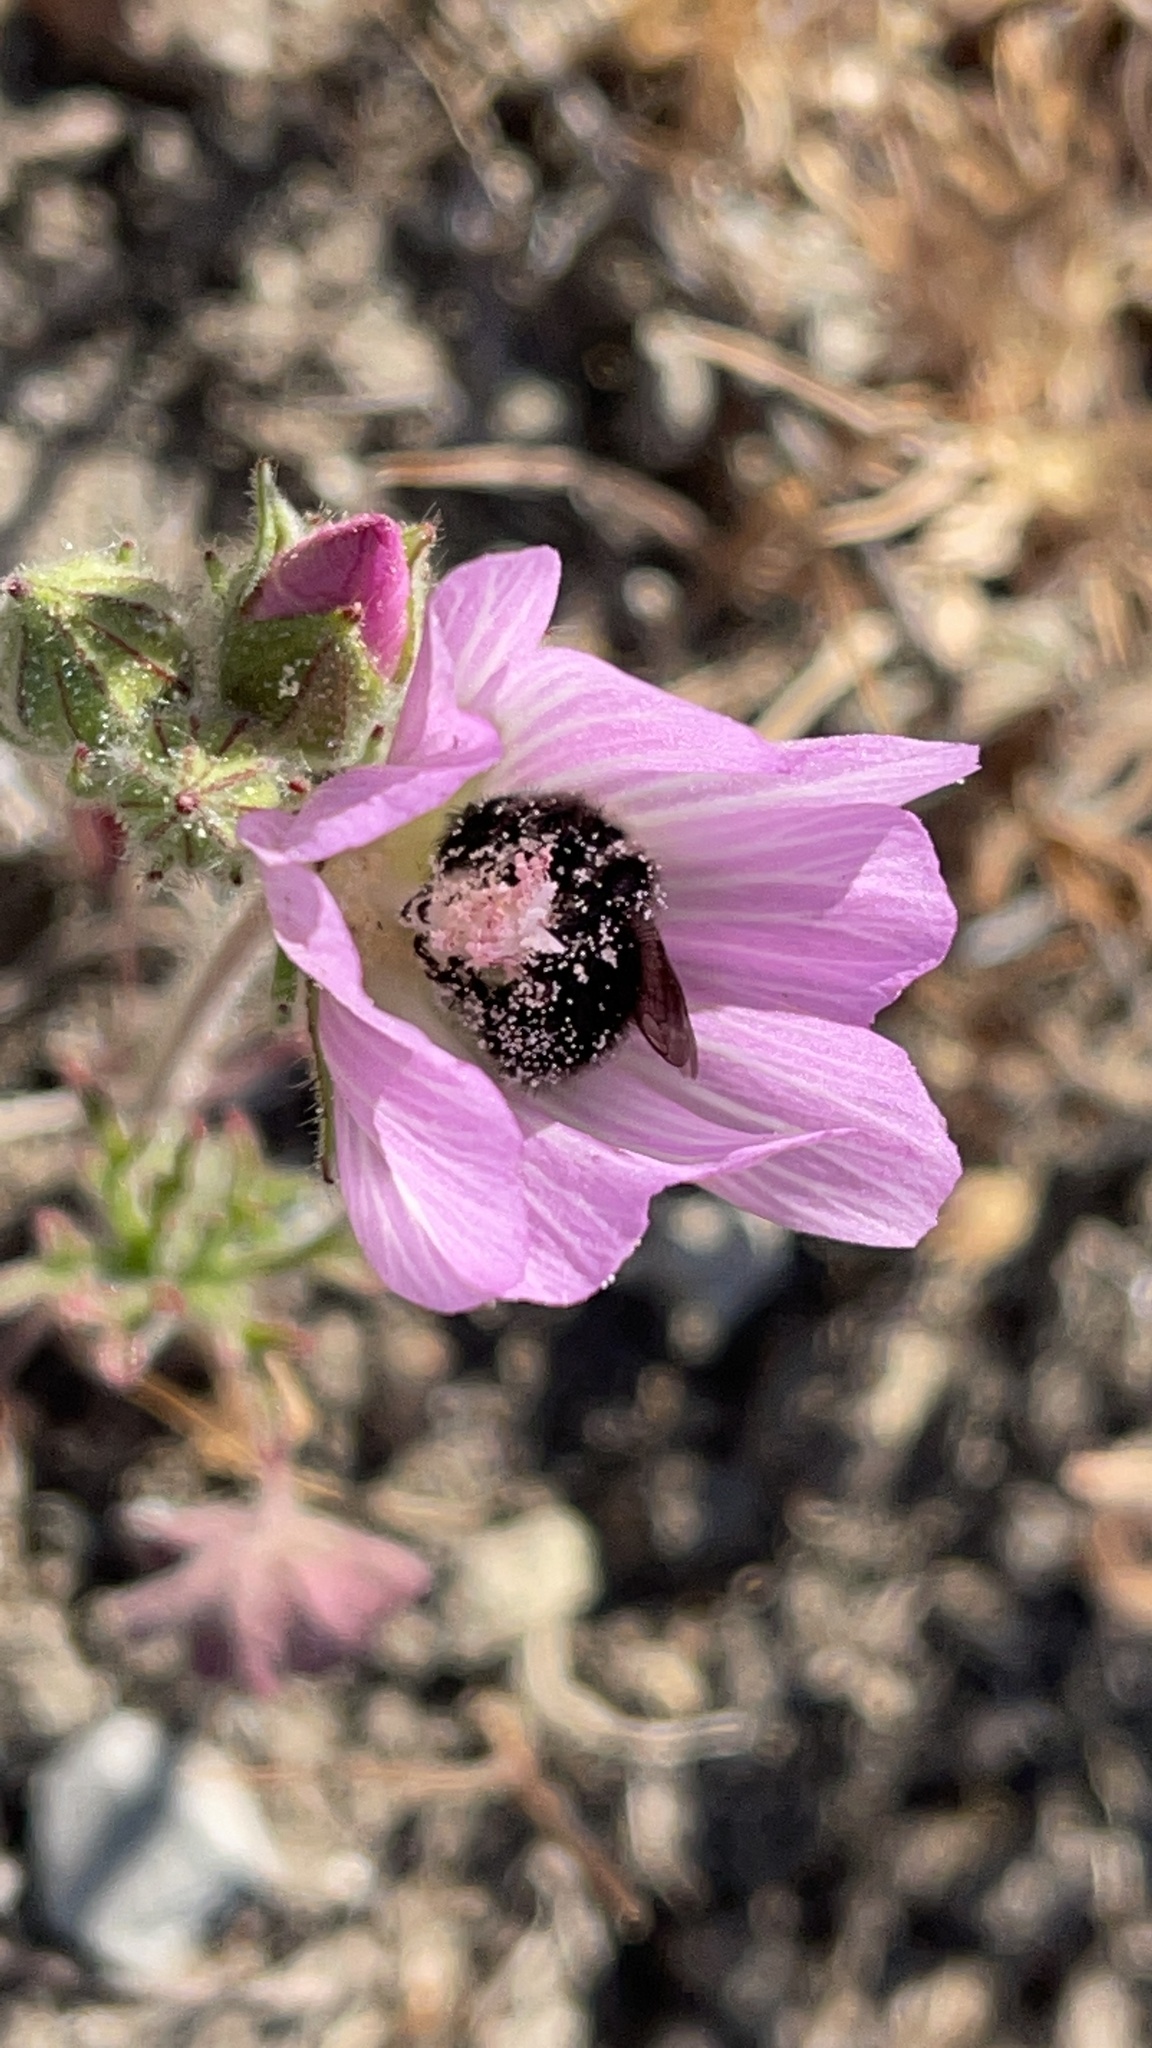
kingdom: Animalia
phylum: Arthropoda
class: Insecta
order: Hymenoptera
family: Apidae
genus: Diadasia
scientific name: Diadasia nigrifrons
